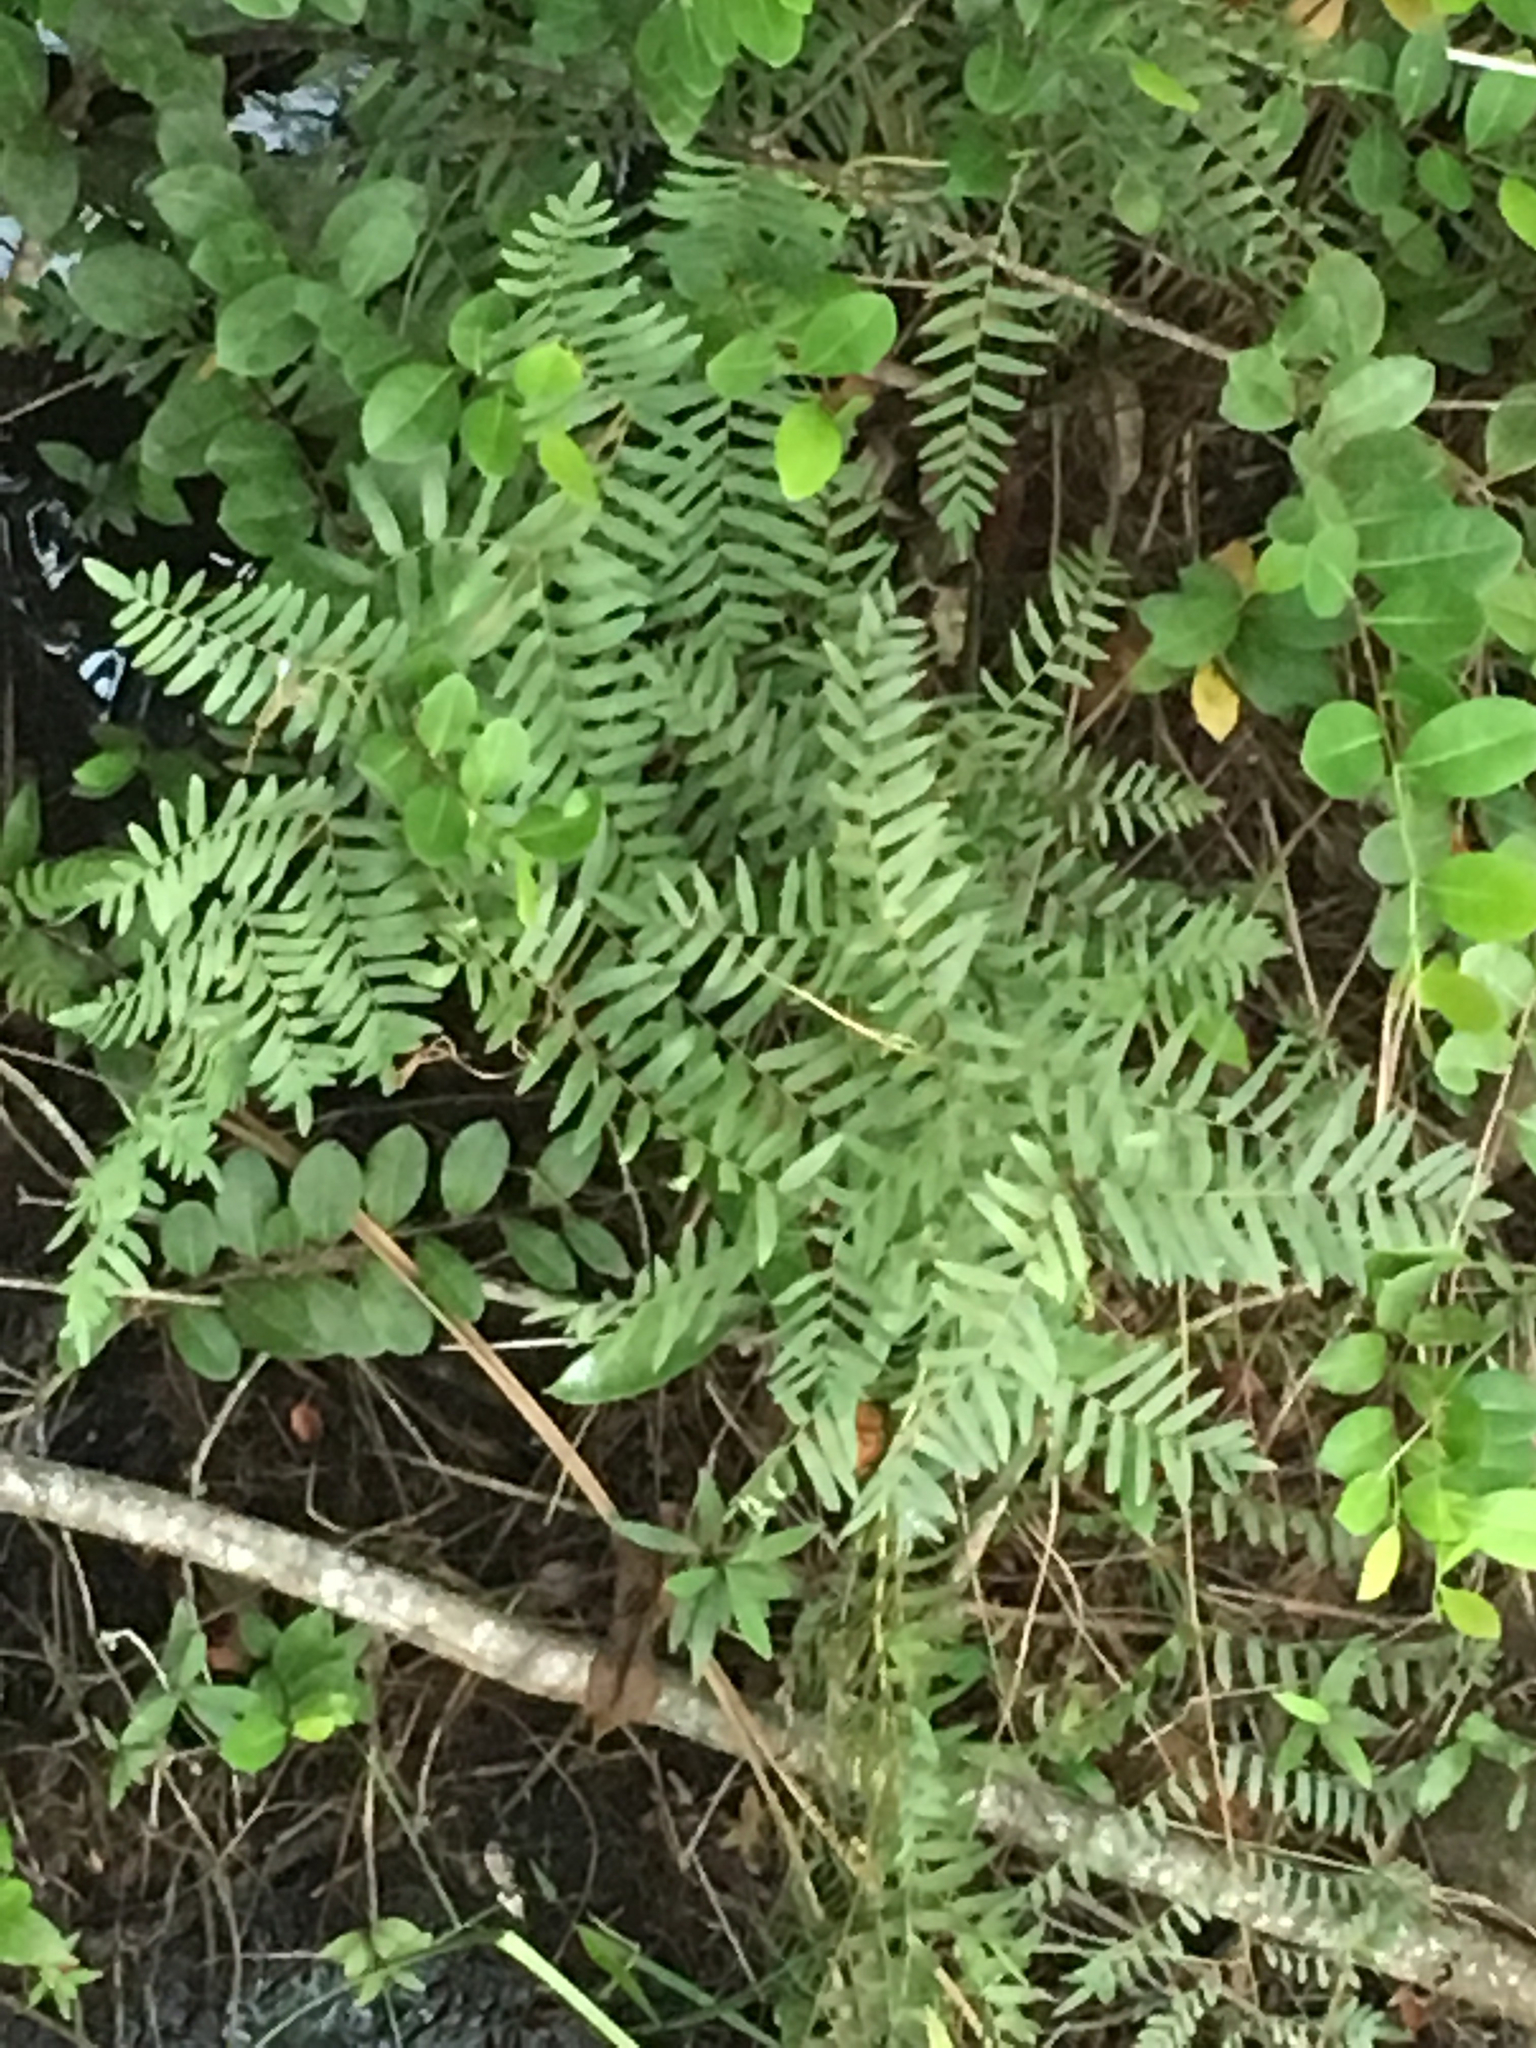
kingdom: Plantae
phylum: Tracheophyta
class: Polypodiopsida
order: Osmundales
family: Osmundaceae
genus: Osmunda
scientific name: Osmunda spectabilis
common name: American royal fern
